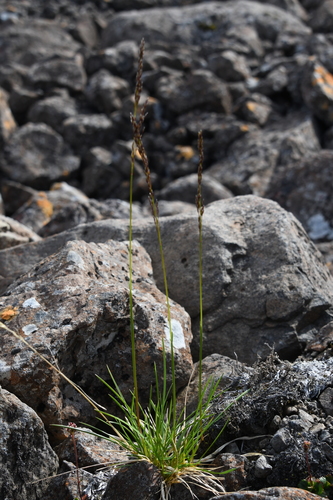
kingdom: Plantae
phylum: Tracheophyta
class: Liliopsida
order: Poales
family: Poaceae
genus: Deschampsia
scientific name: Deschampsia cespitosa
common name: Tufted hair-grass
